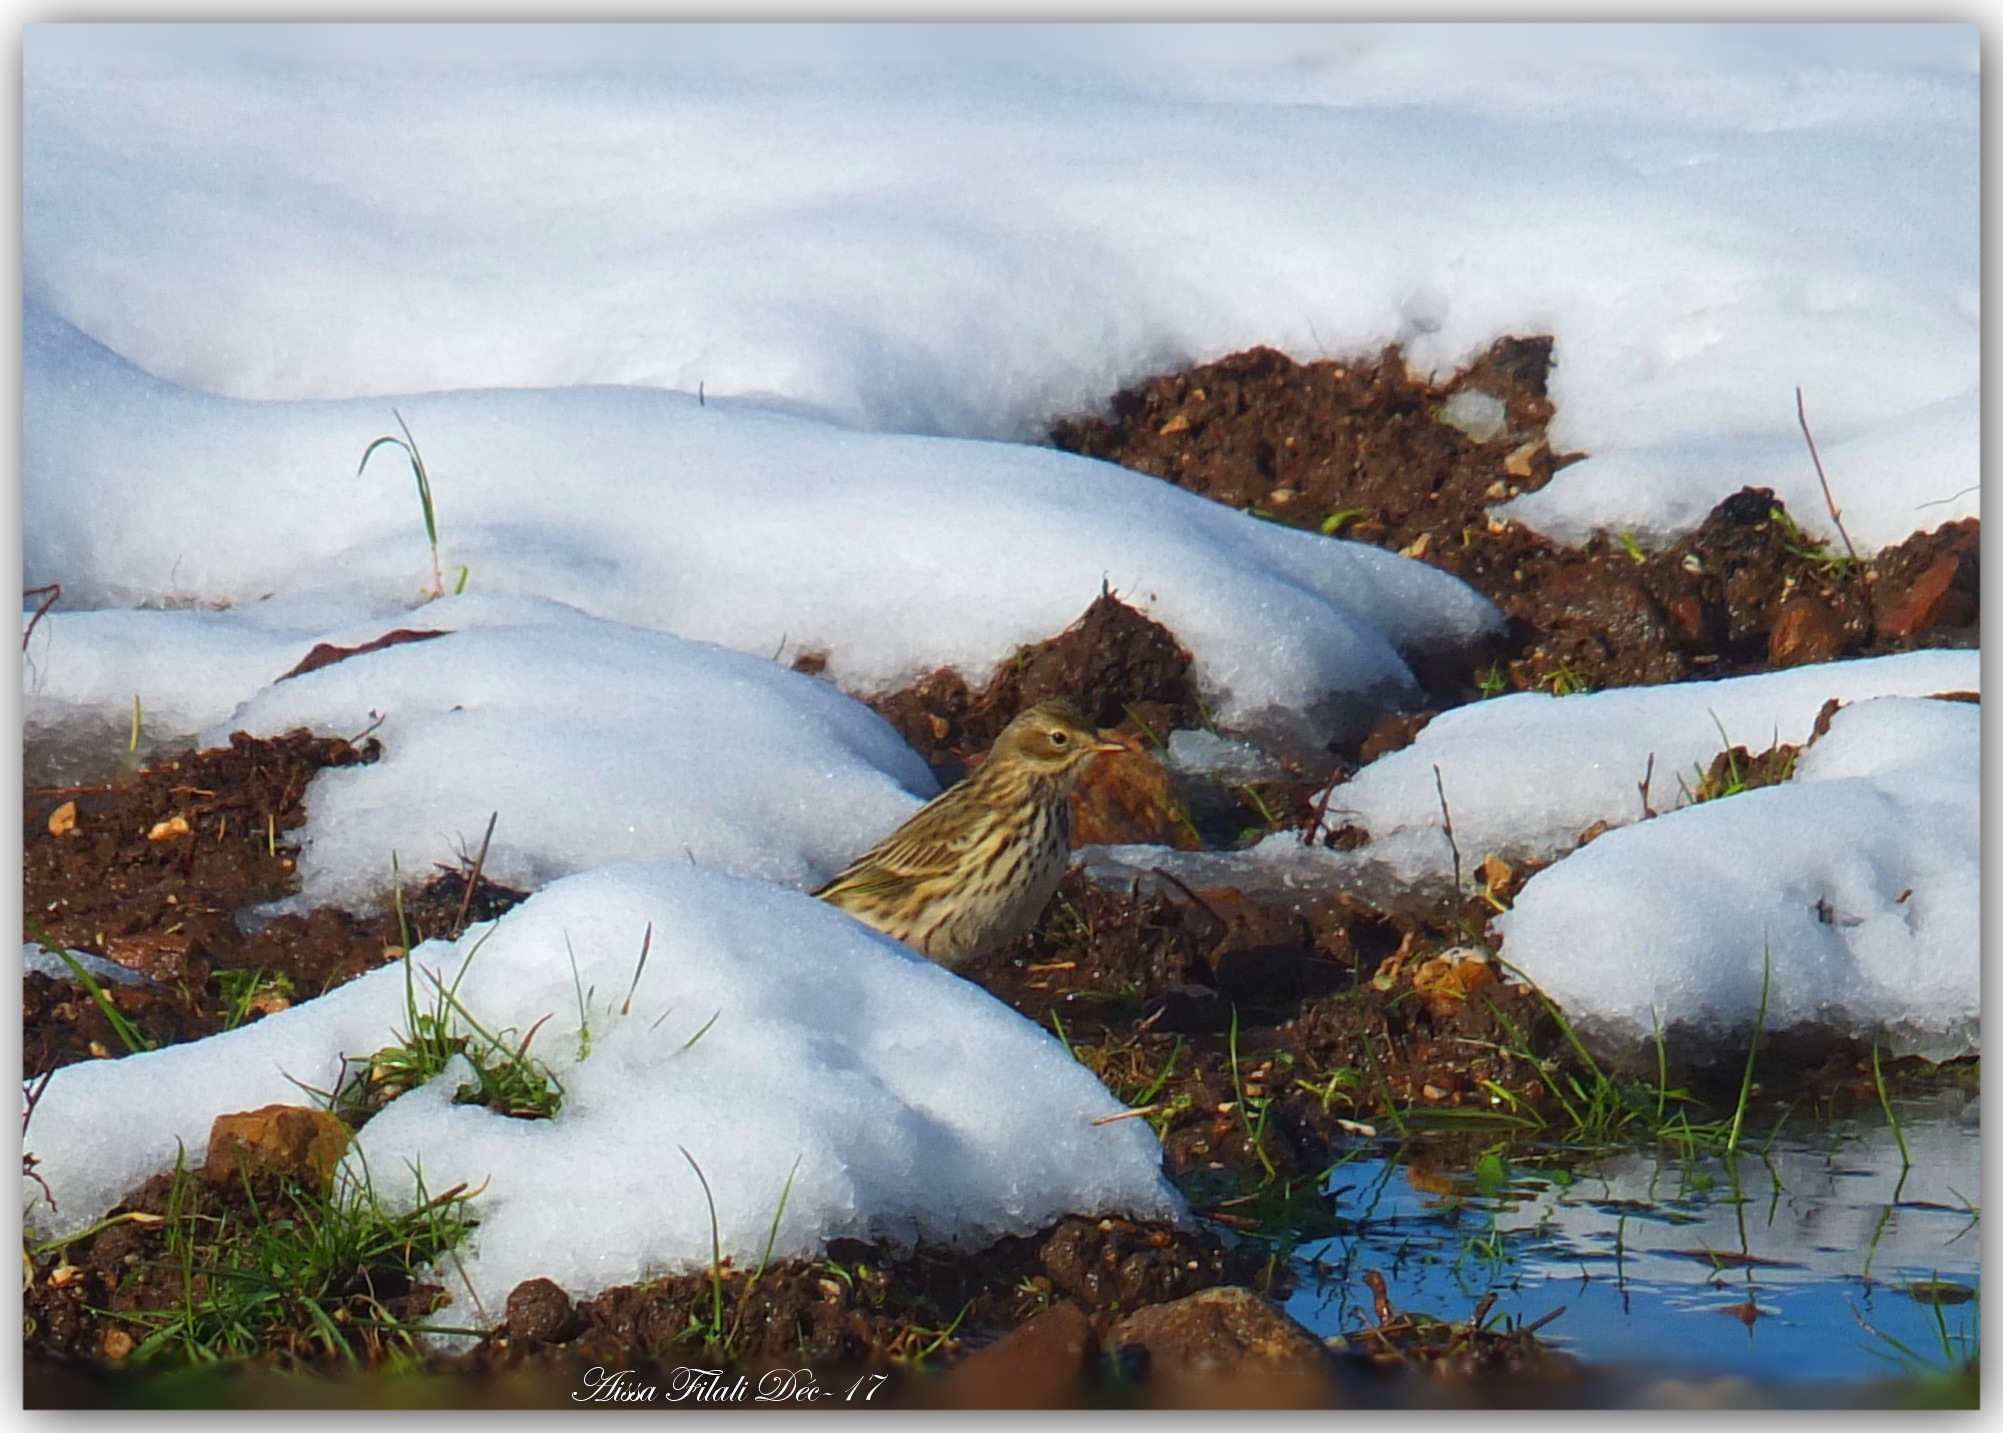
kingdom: Animalia
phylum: Chordata
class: Aves
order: Passeriformes
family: Motacillidae
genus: Anthus
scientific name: Anthus pratensis
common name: Meadow pipit
